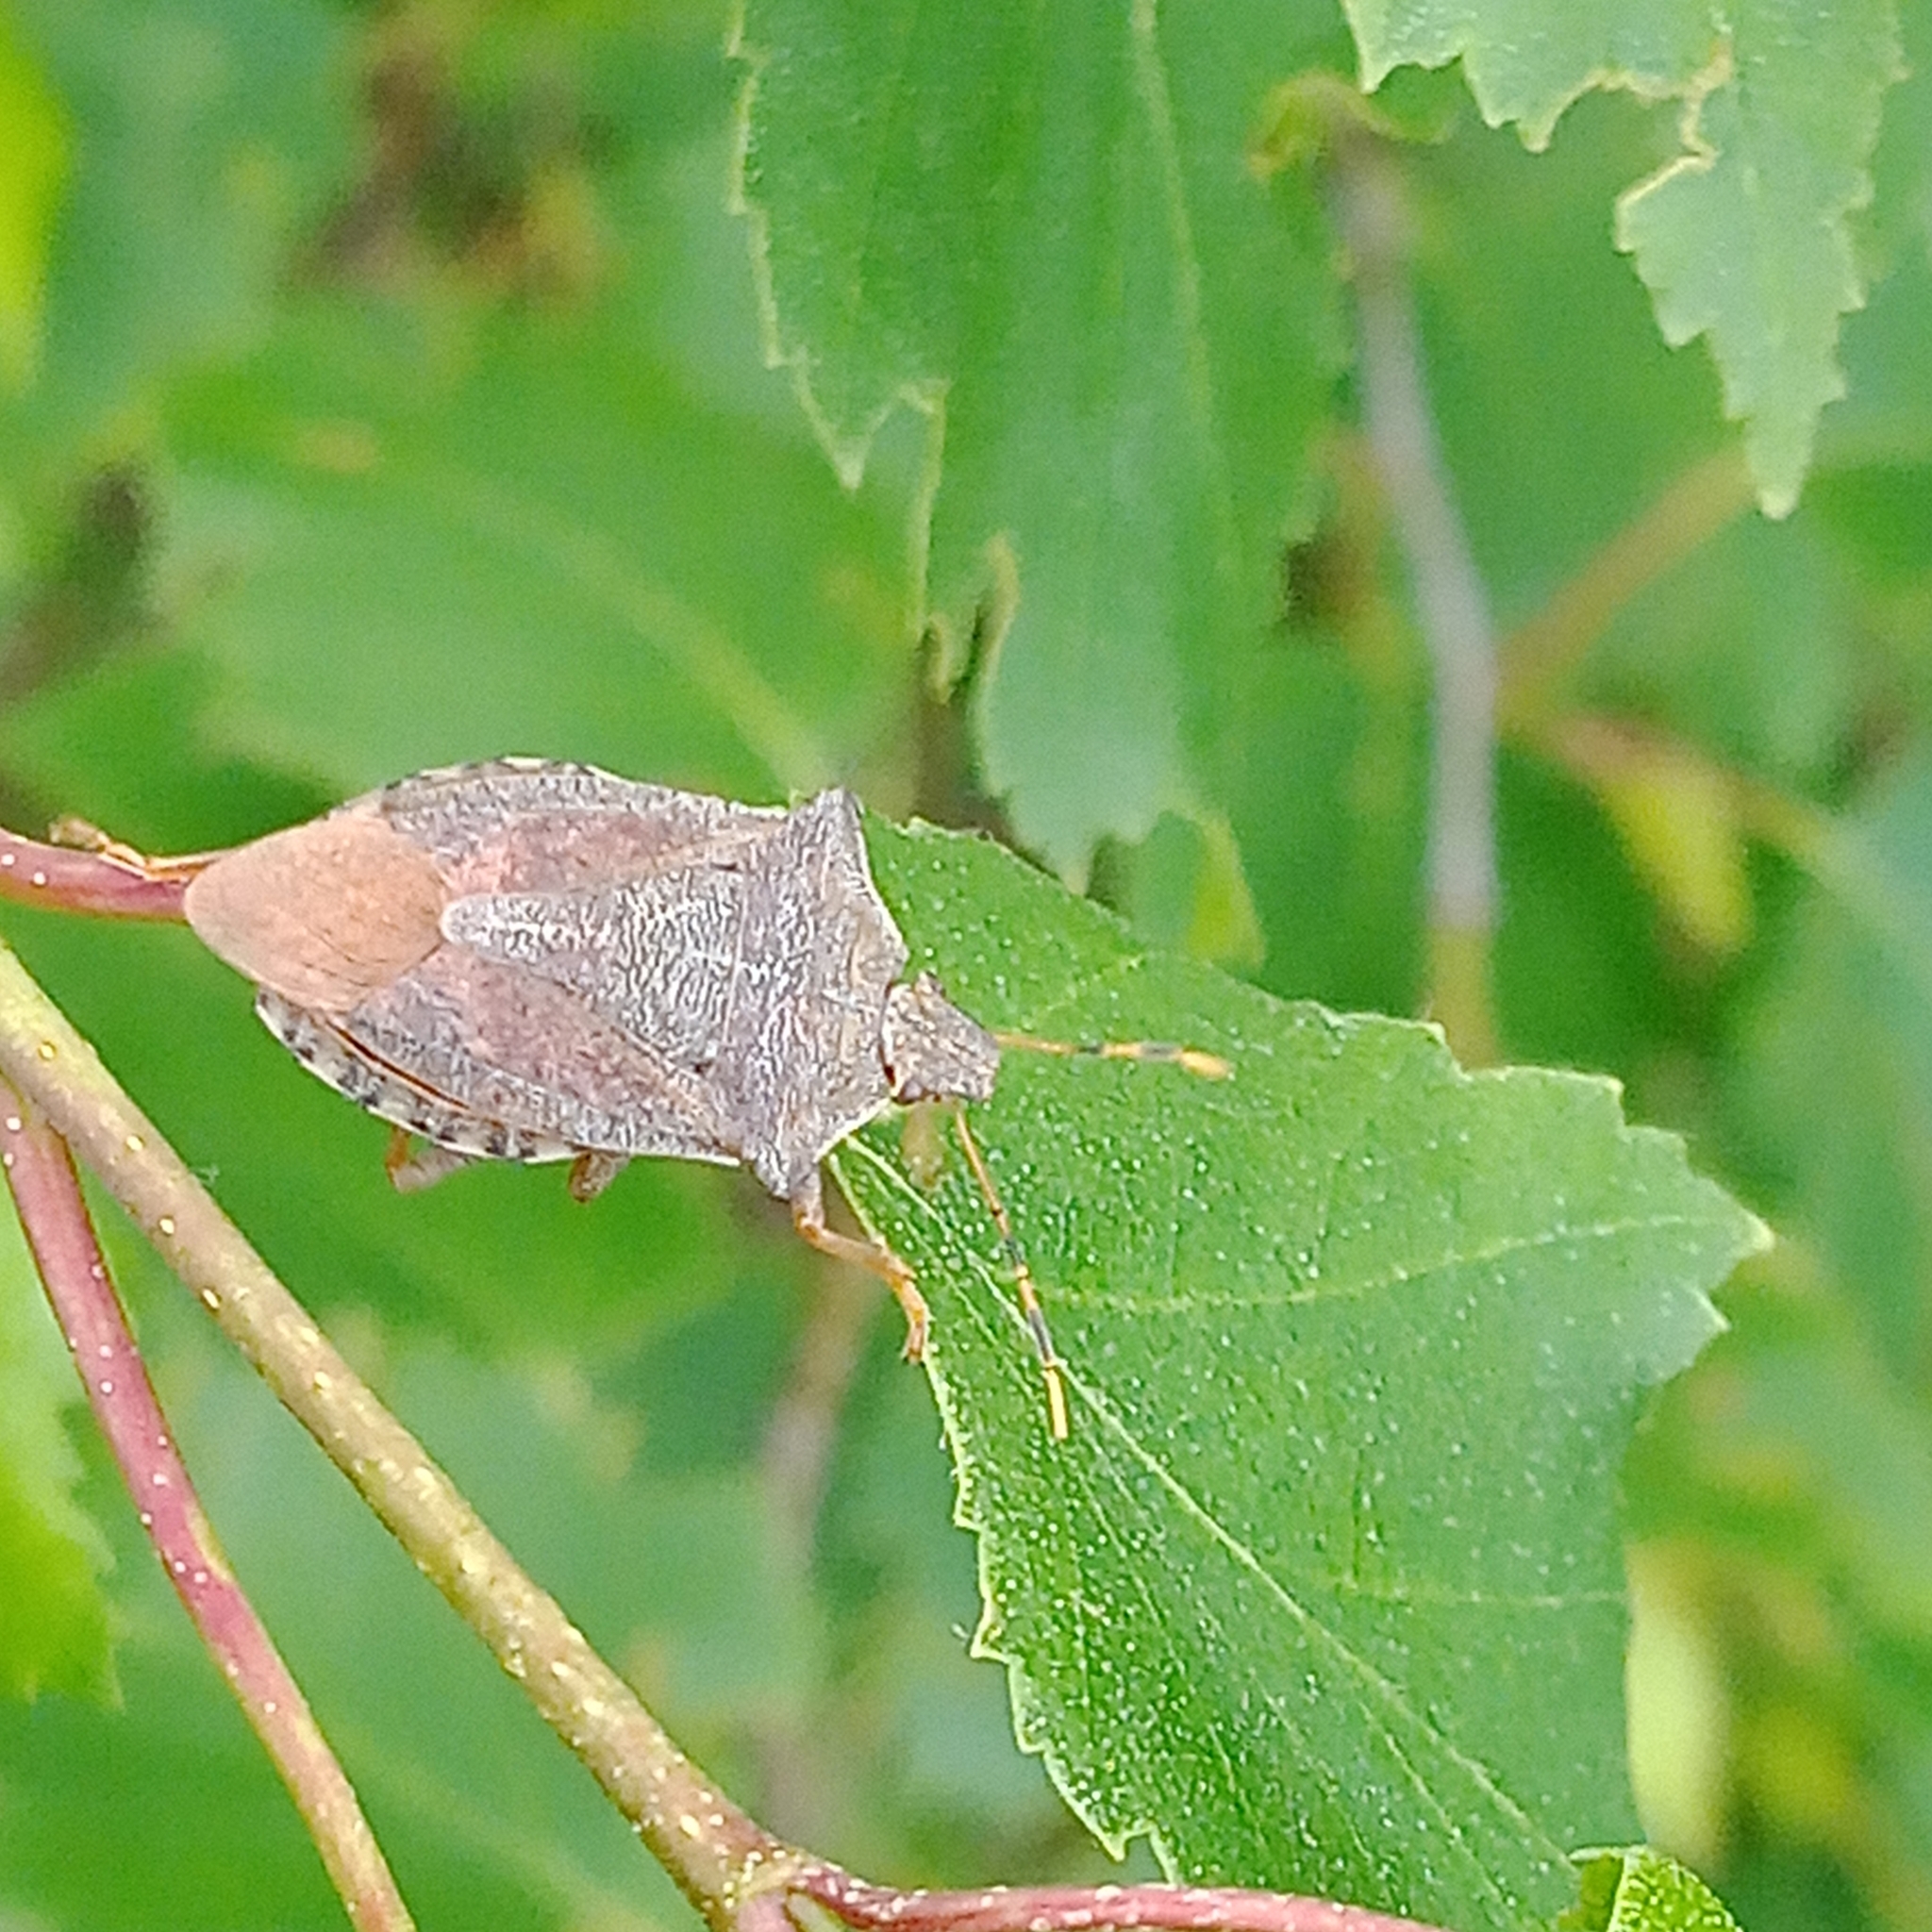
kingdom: Animalia
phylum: Arthropoda
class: Insecta
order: Hemiptera
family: Pentatomidae
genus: Arma
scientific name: Arma custos
